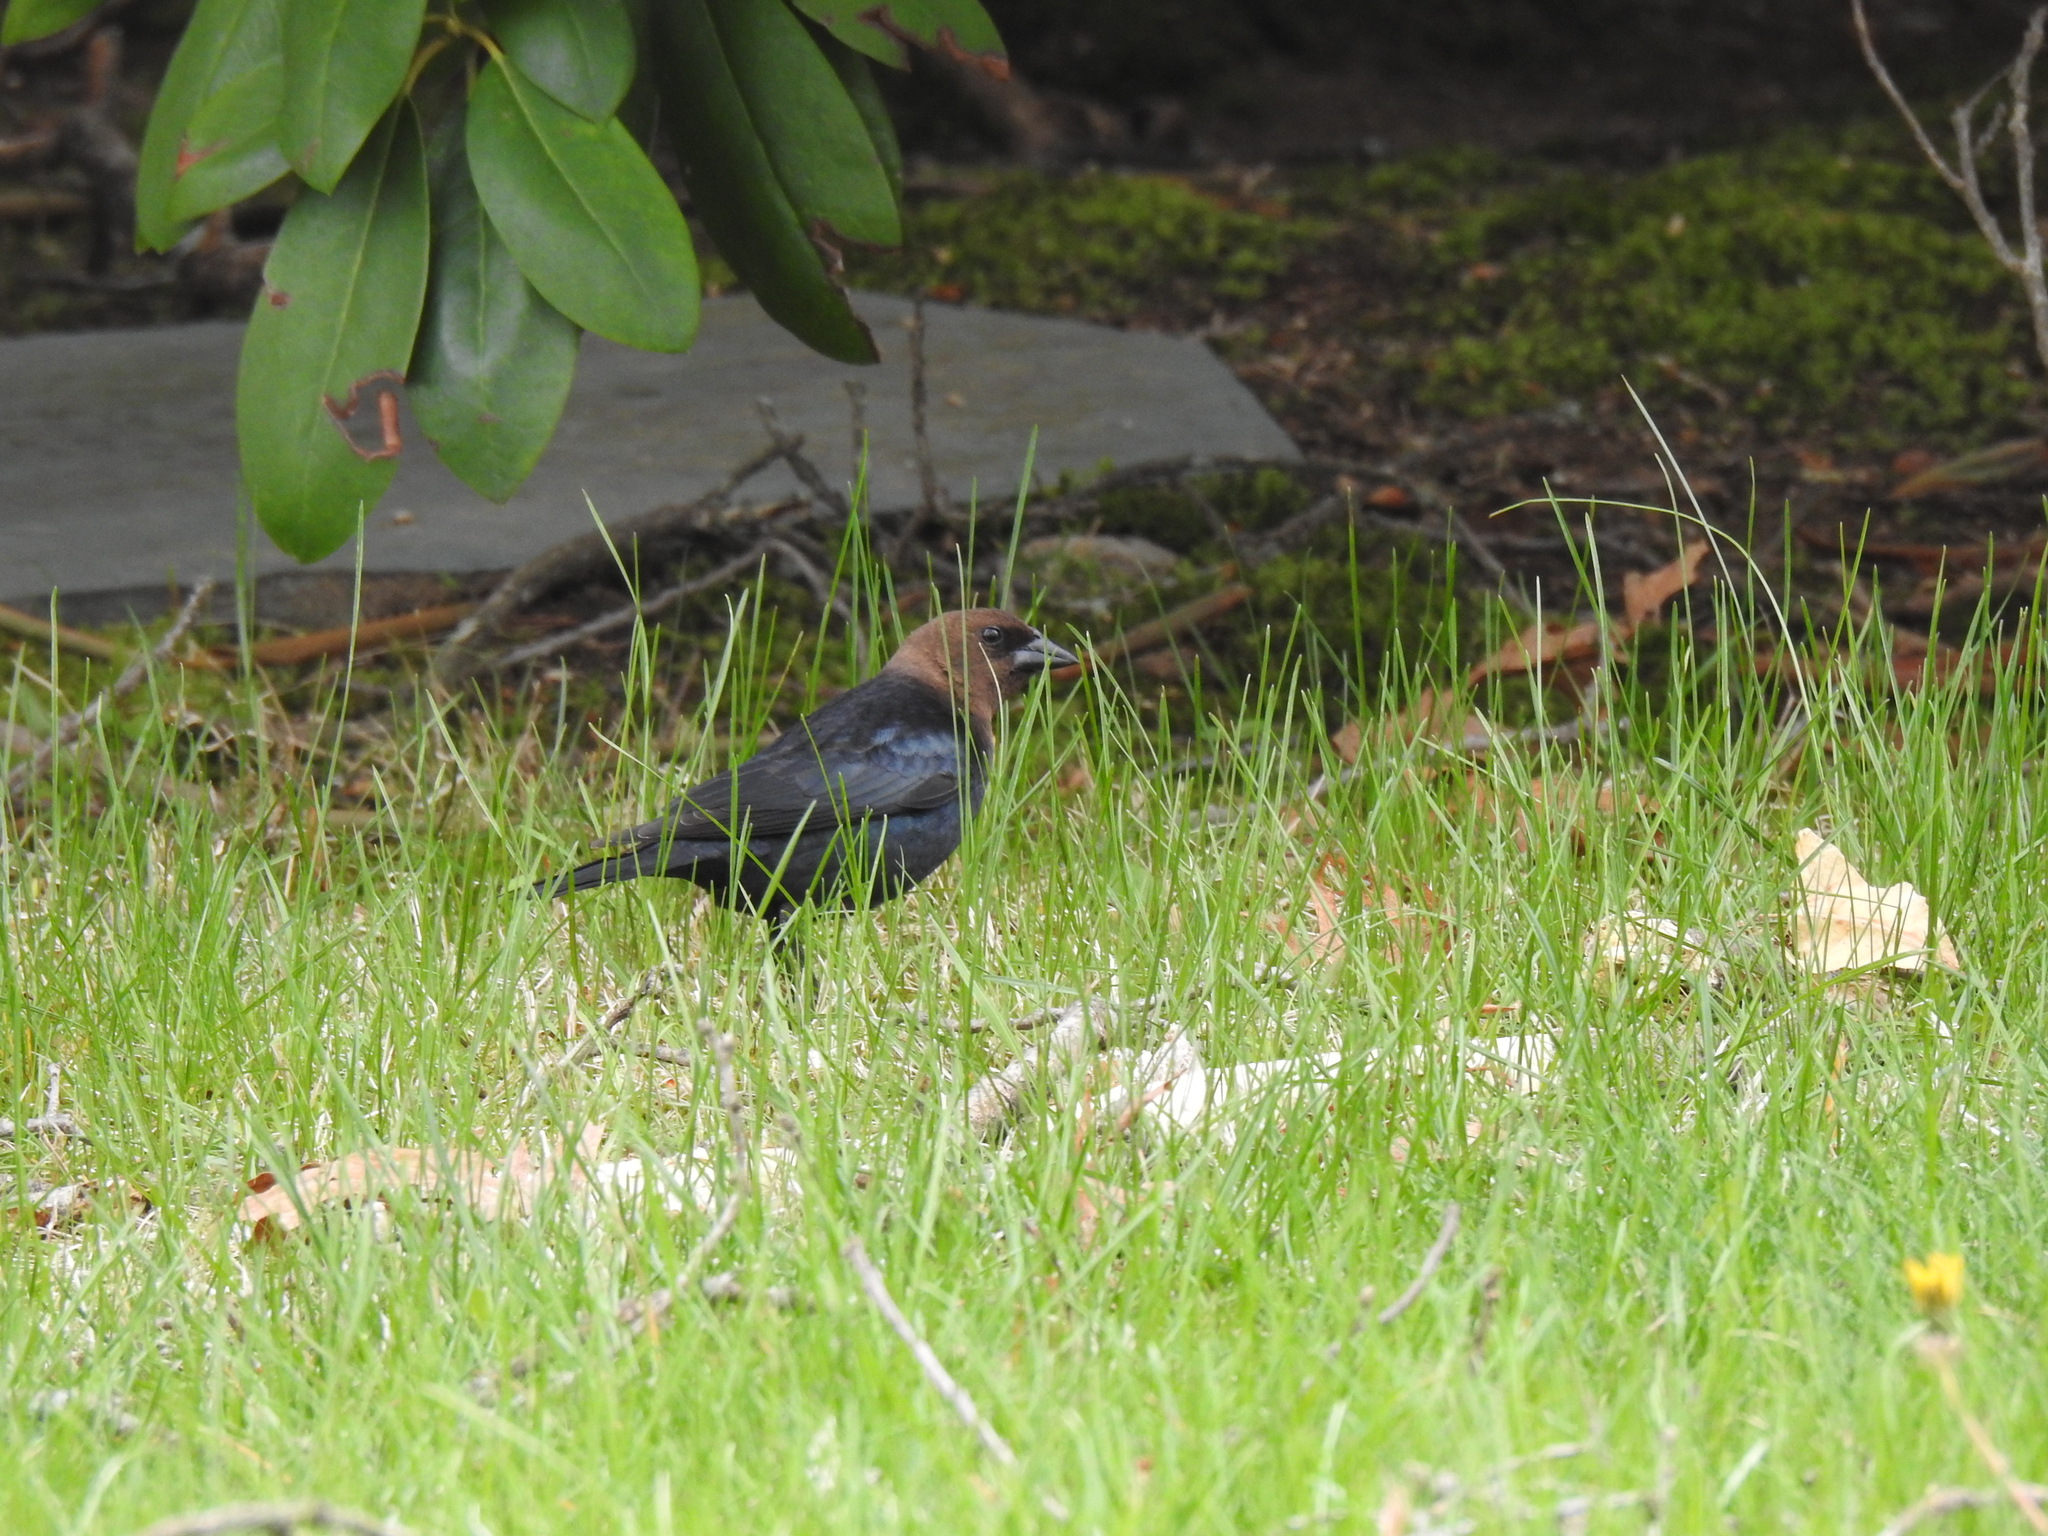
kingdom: Animalia
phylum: Chordata
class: Aves
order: Passeriformes
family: Icteridae
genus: Molothrus
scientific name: Molothrus ater
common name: Brown-headed cowbird
